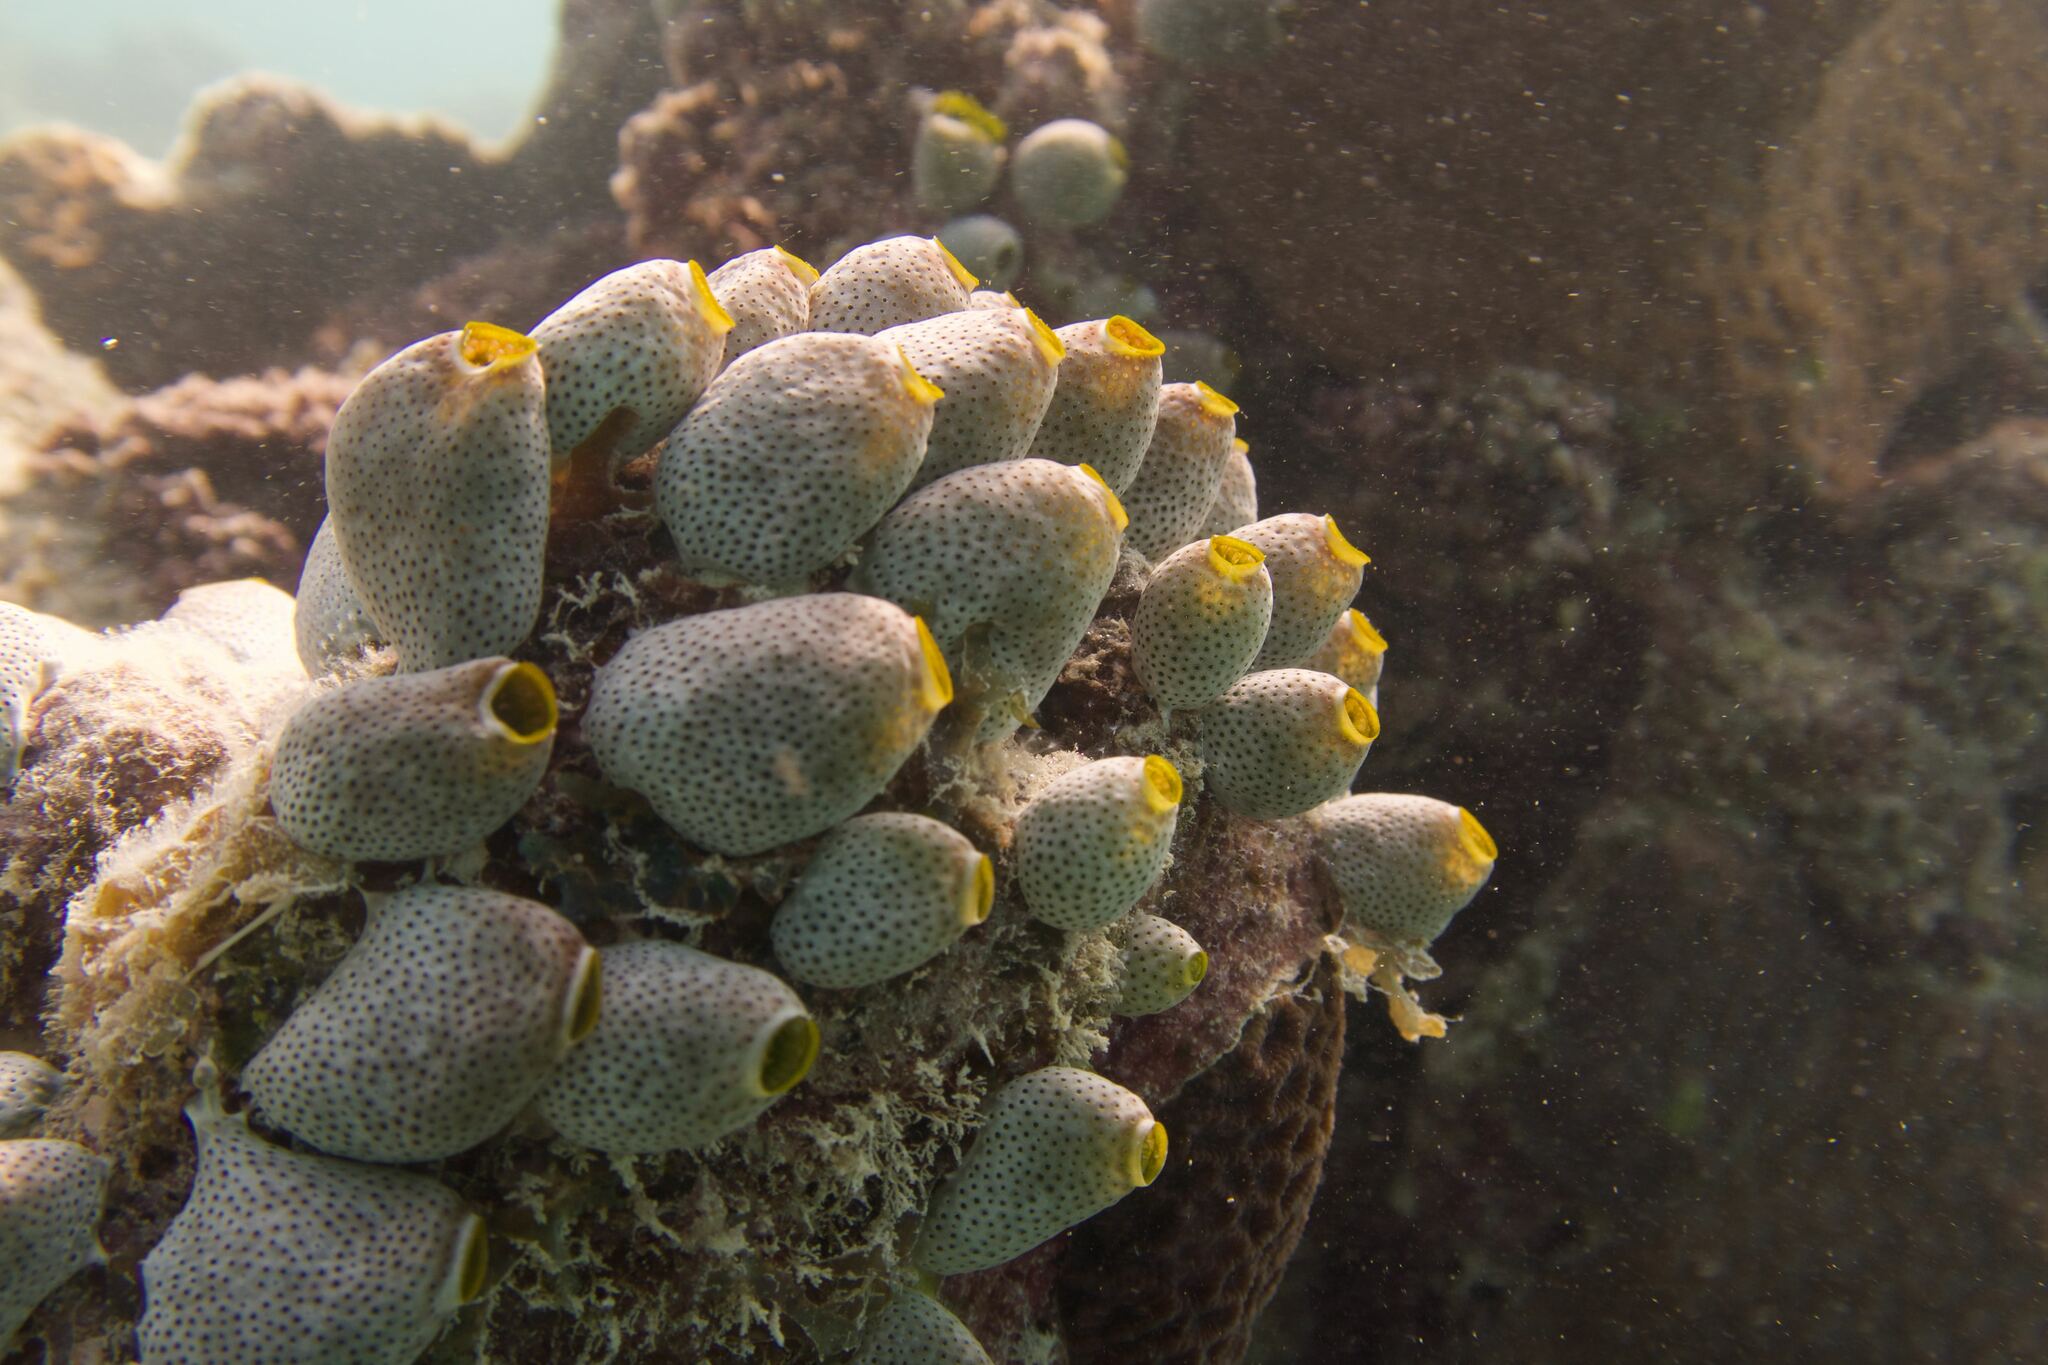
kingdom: Animalia
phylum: Chordata
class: Ascidiacea
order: Aplousobranchia
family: Didemnidae
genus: Didemnum
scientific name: Didemnum molle
